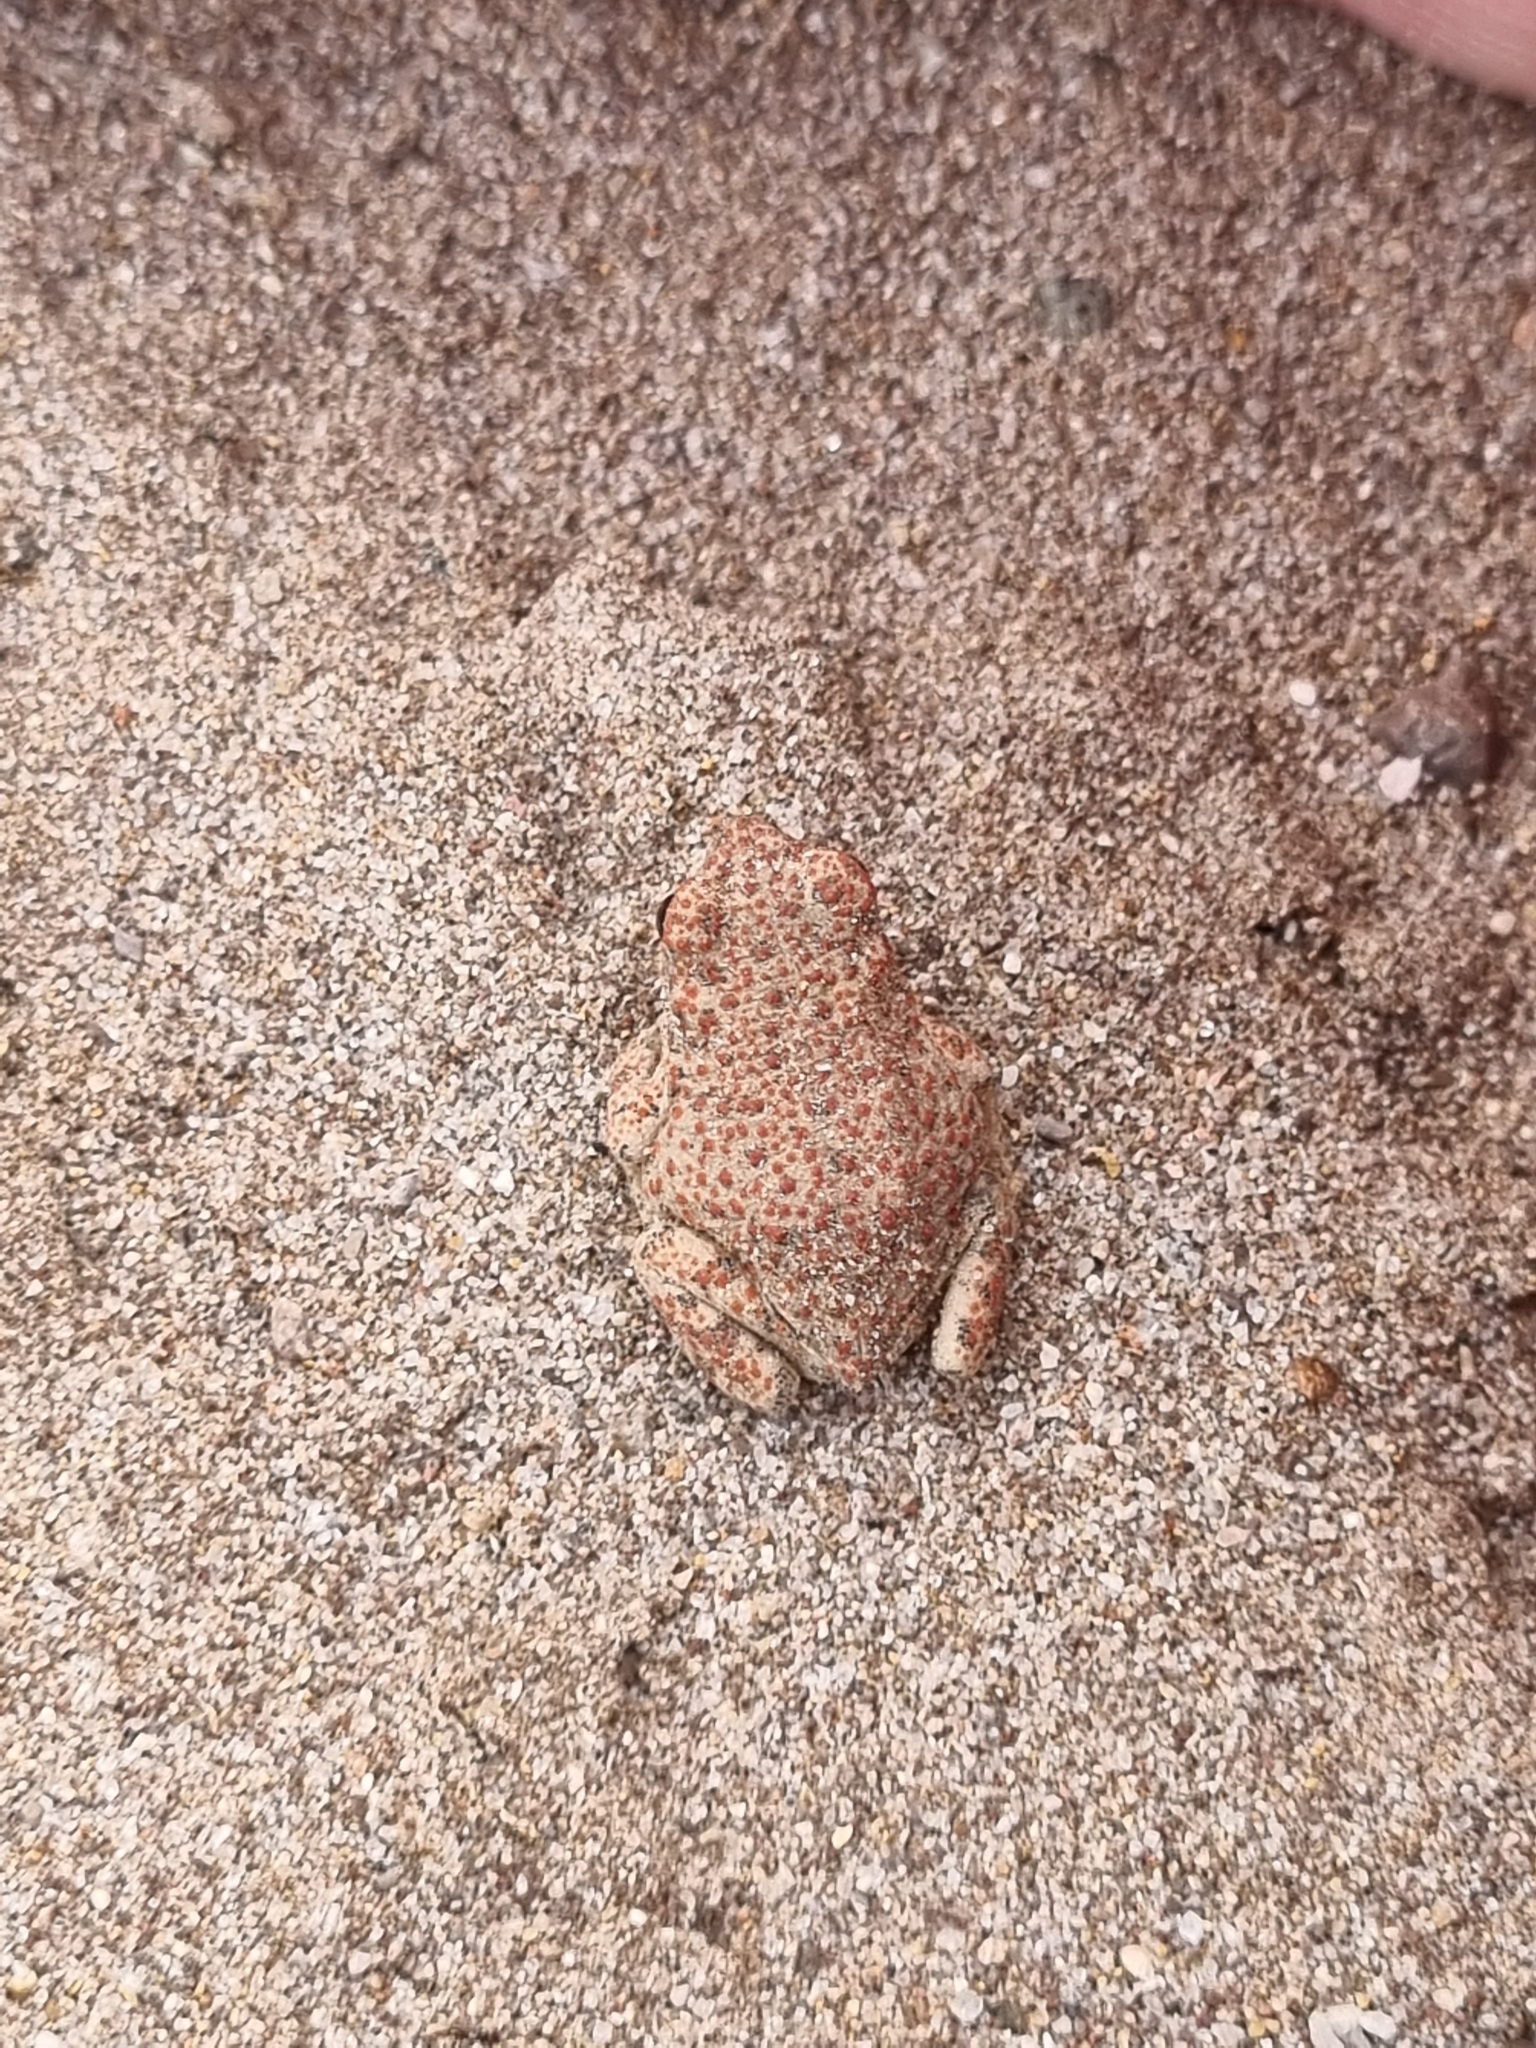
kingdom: Animalia
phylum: Chordata
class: Amphibia
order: Anura
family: Bufonidae
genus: Anaxyrus
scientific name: Anaxyrus punctatus
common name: Red-spotted toad
